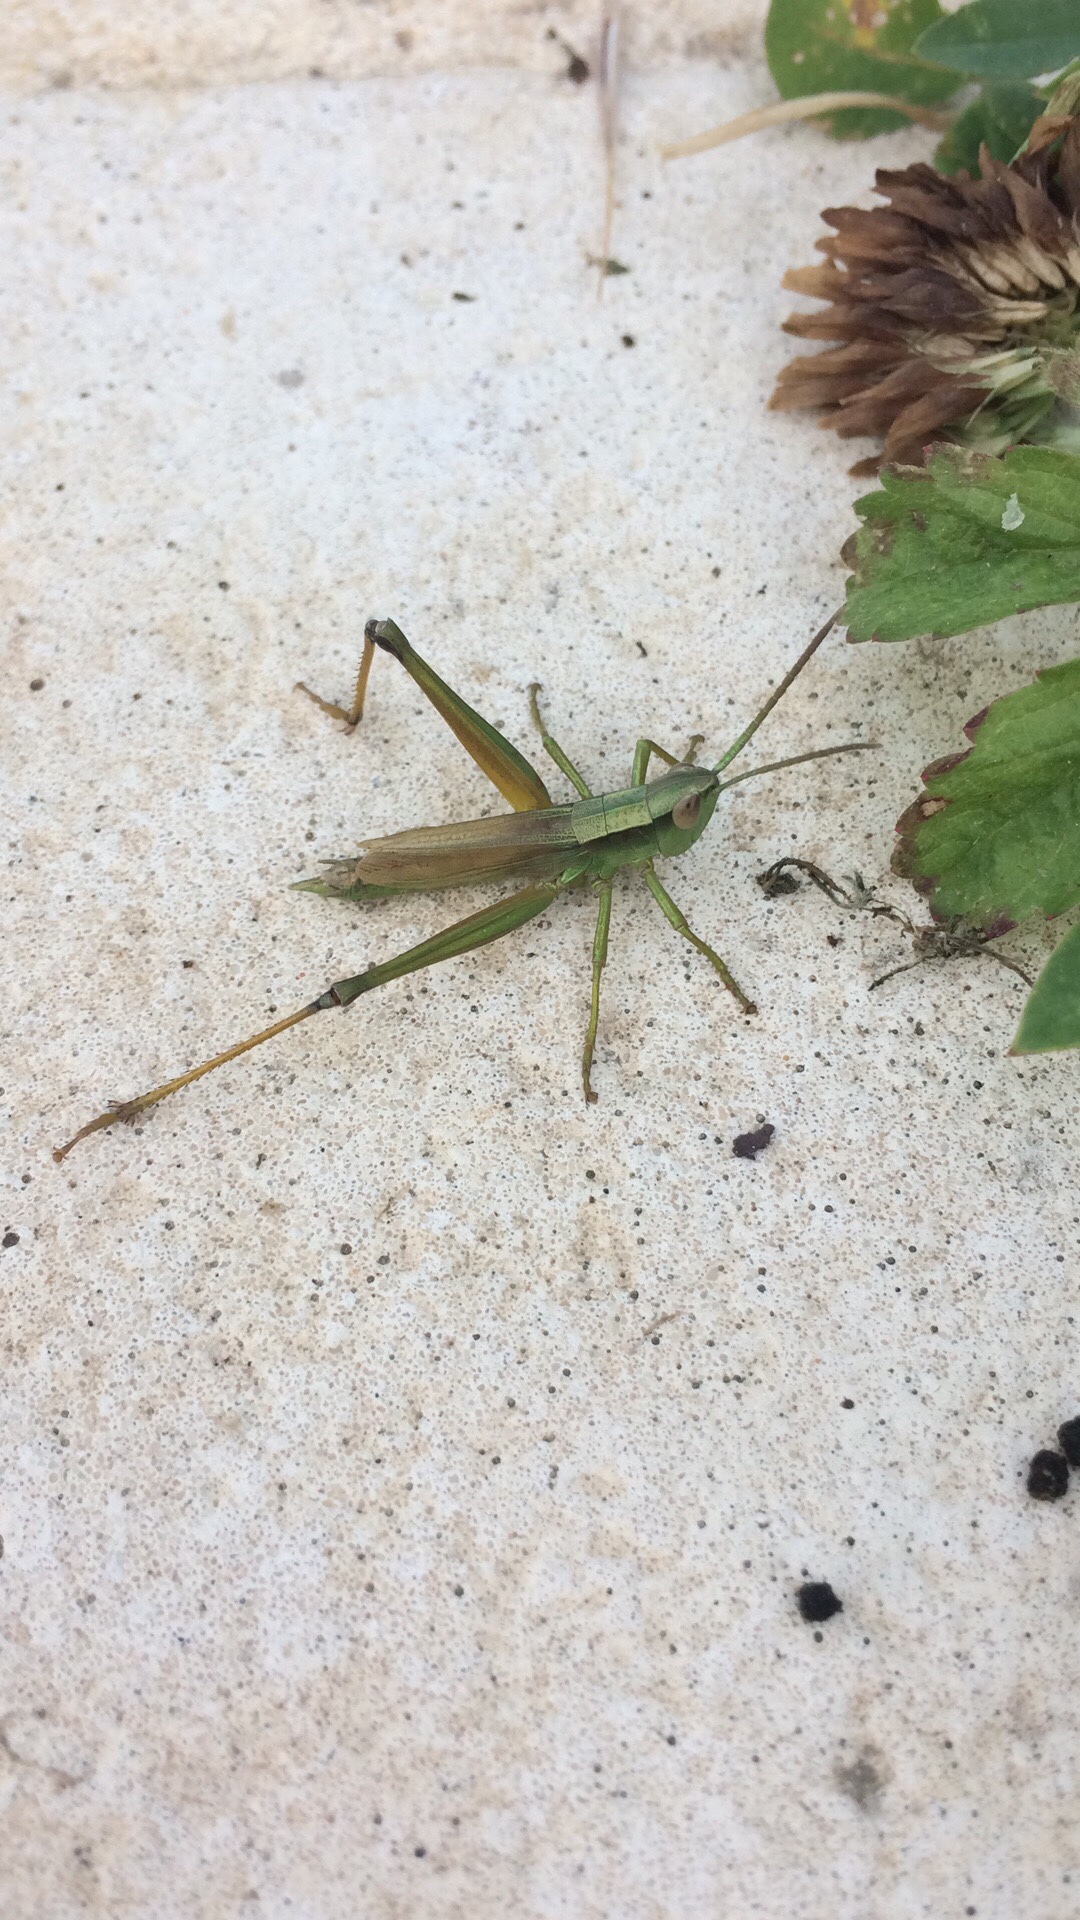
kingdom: Animalia
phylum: Arthropoda
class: Insecta
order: Orthoptera
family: Acrididae
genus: Euthystira
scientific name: Euthystira brachyptera
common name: Small gold grasshopper
